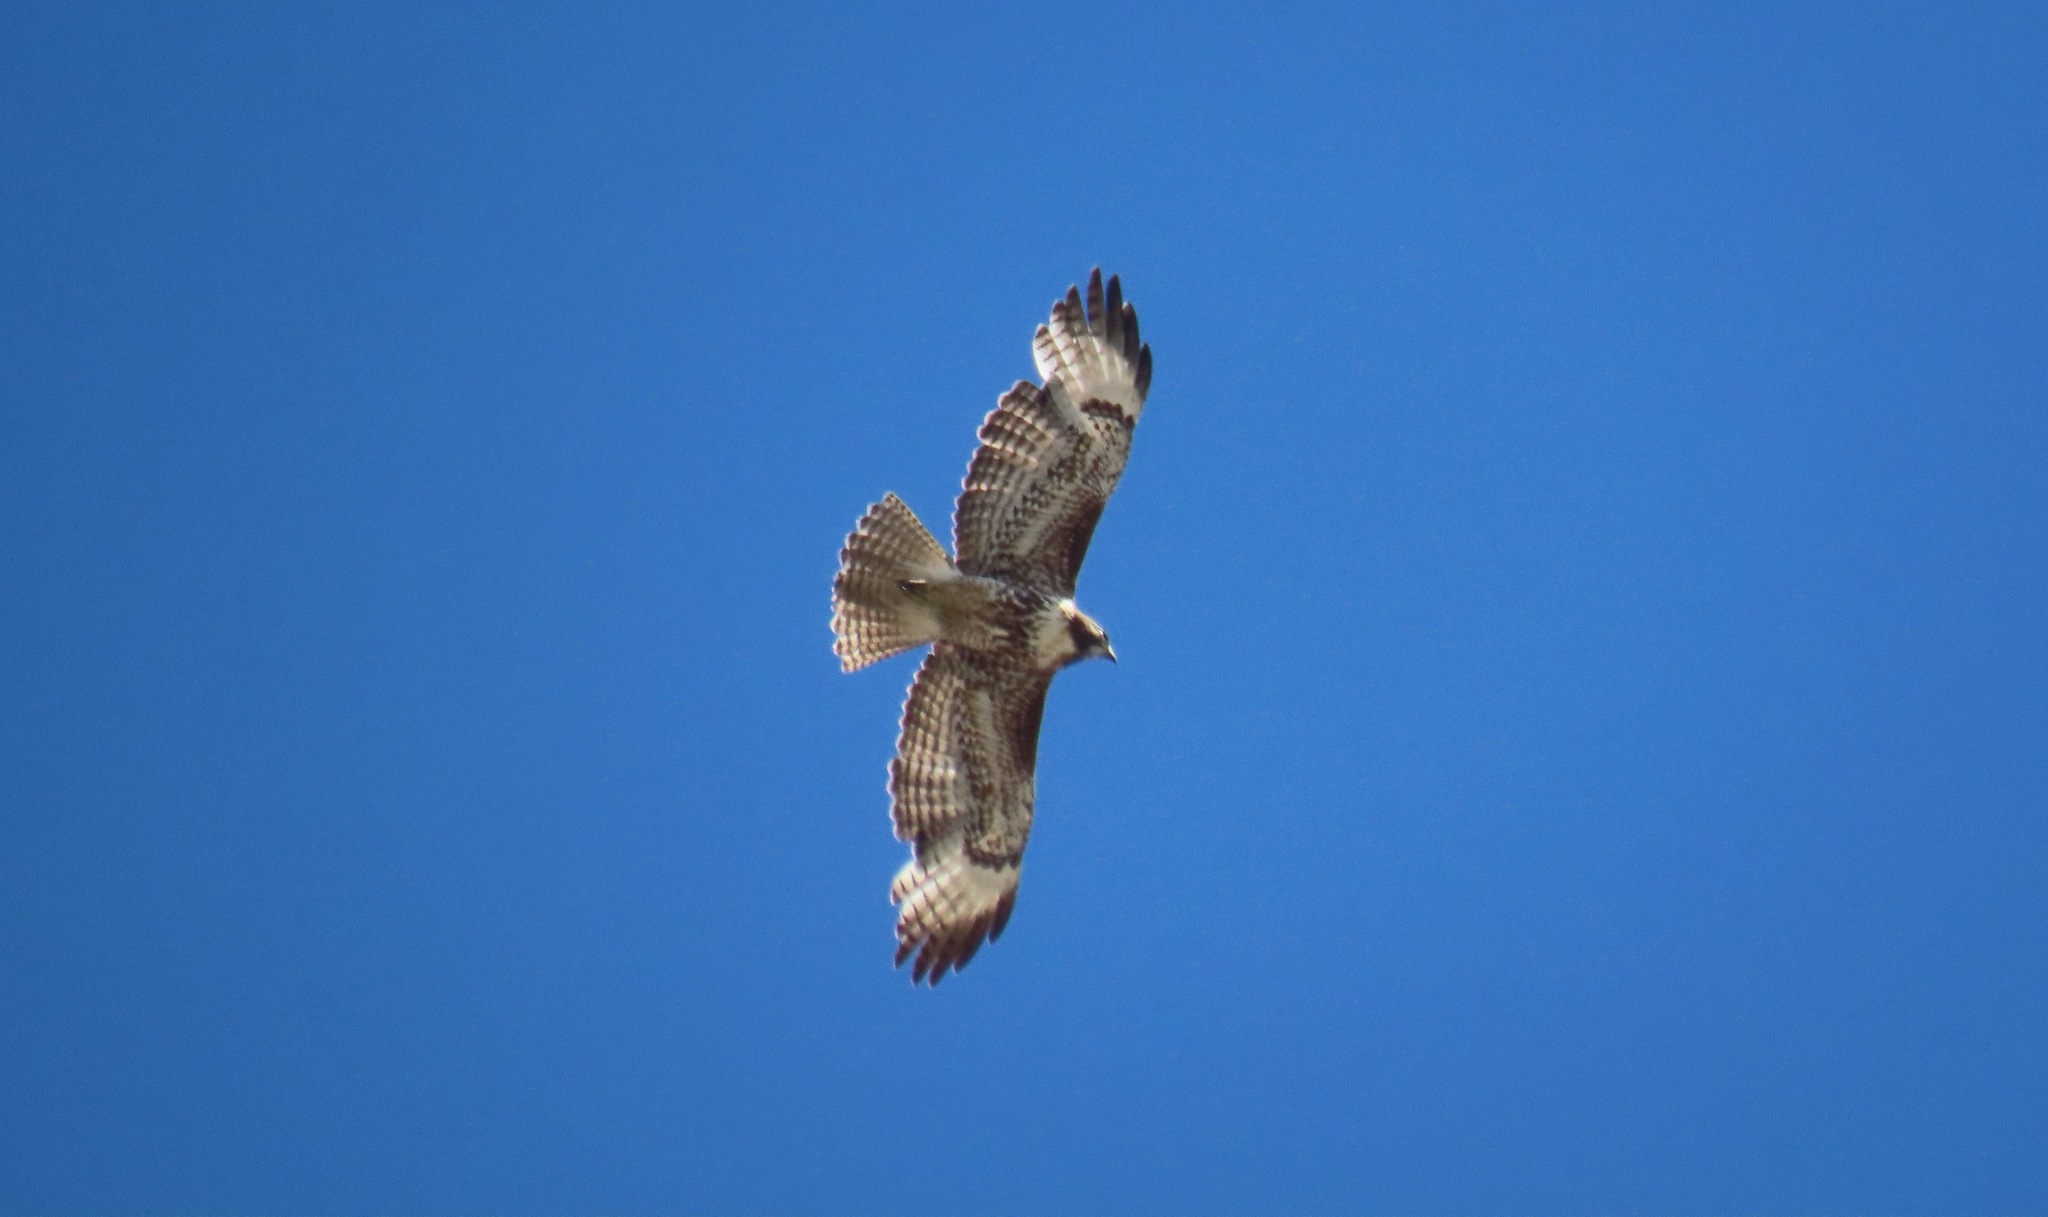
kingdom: Animalia
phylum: Chordata
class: Aves
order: Accipitriformes
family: Accipitridae
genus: Buteo
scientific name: Buteo jamaicensis
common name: Red-tailed hawk
